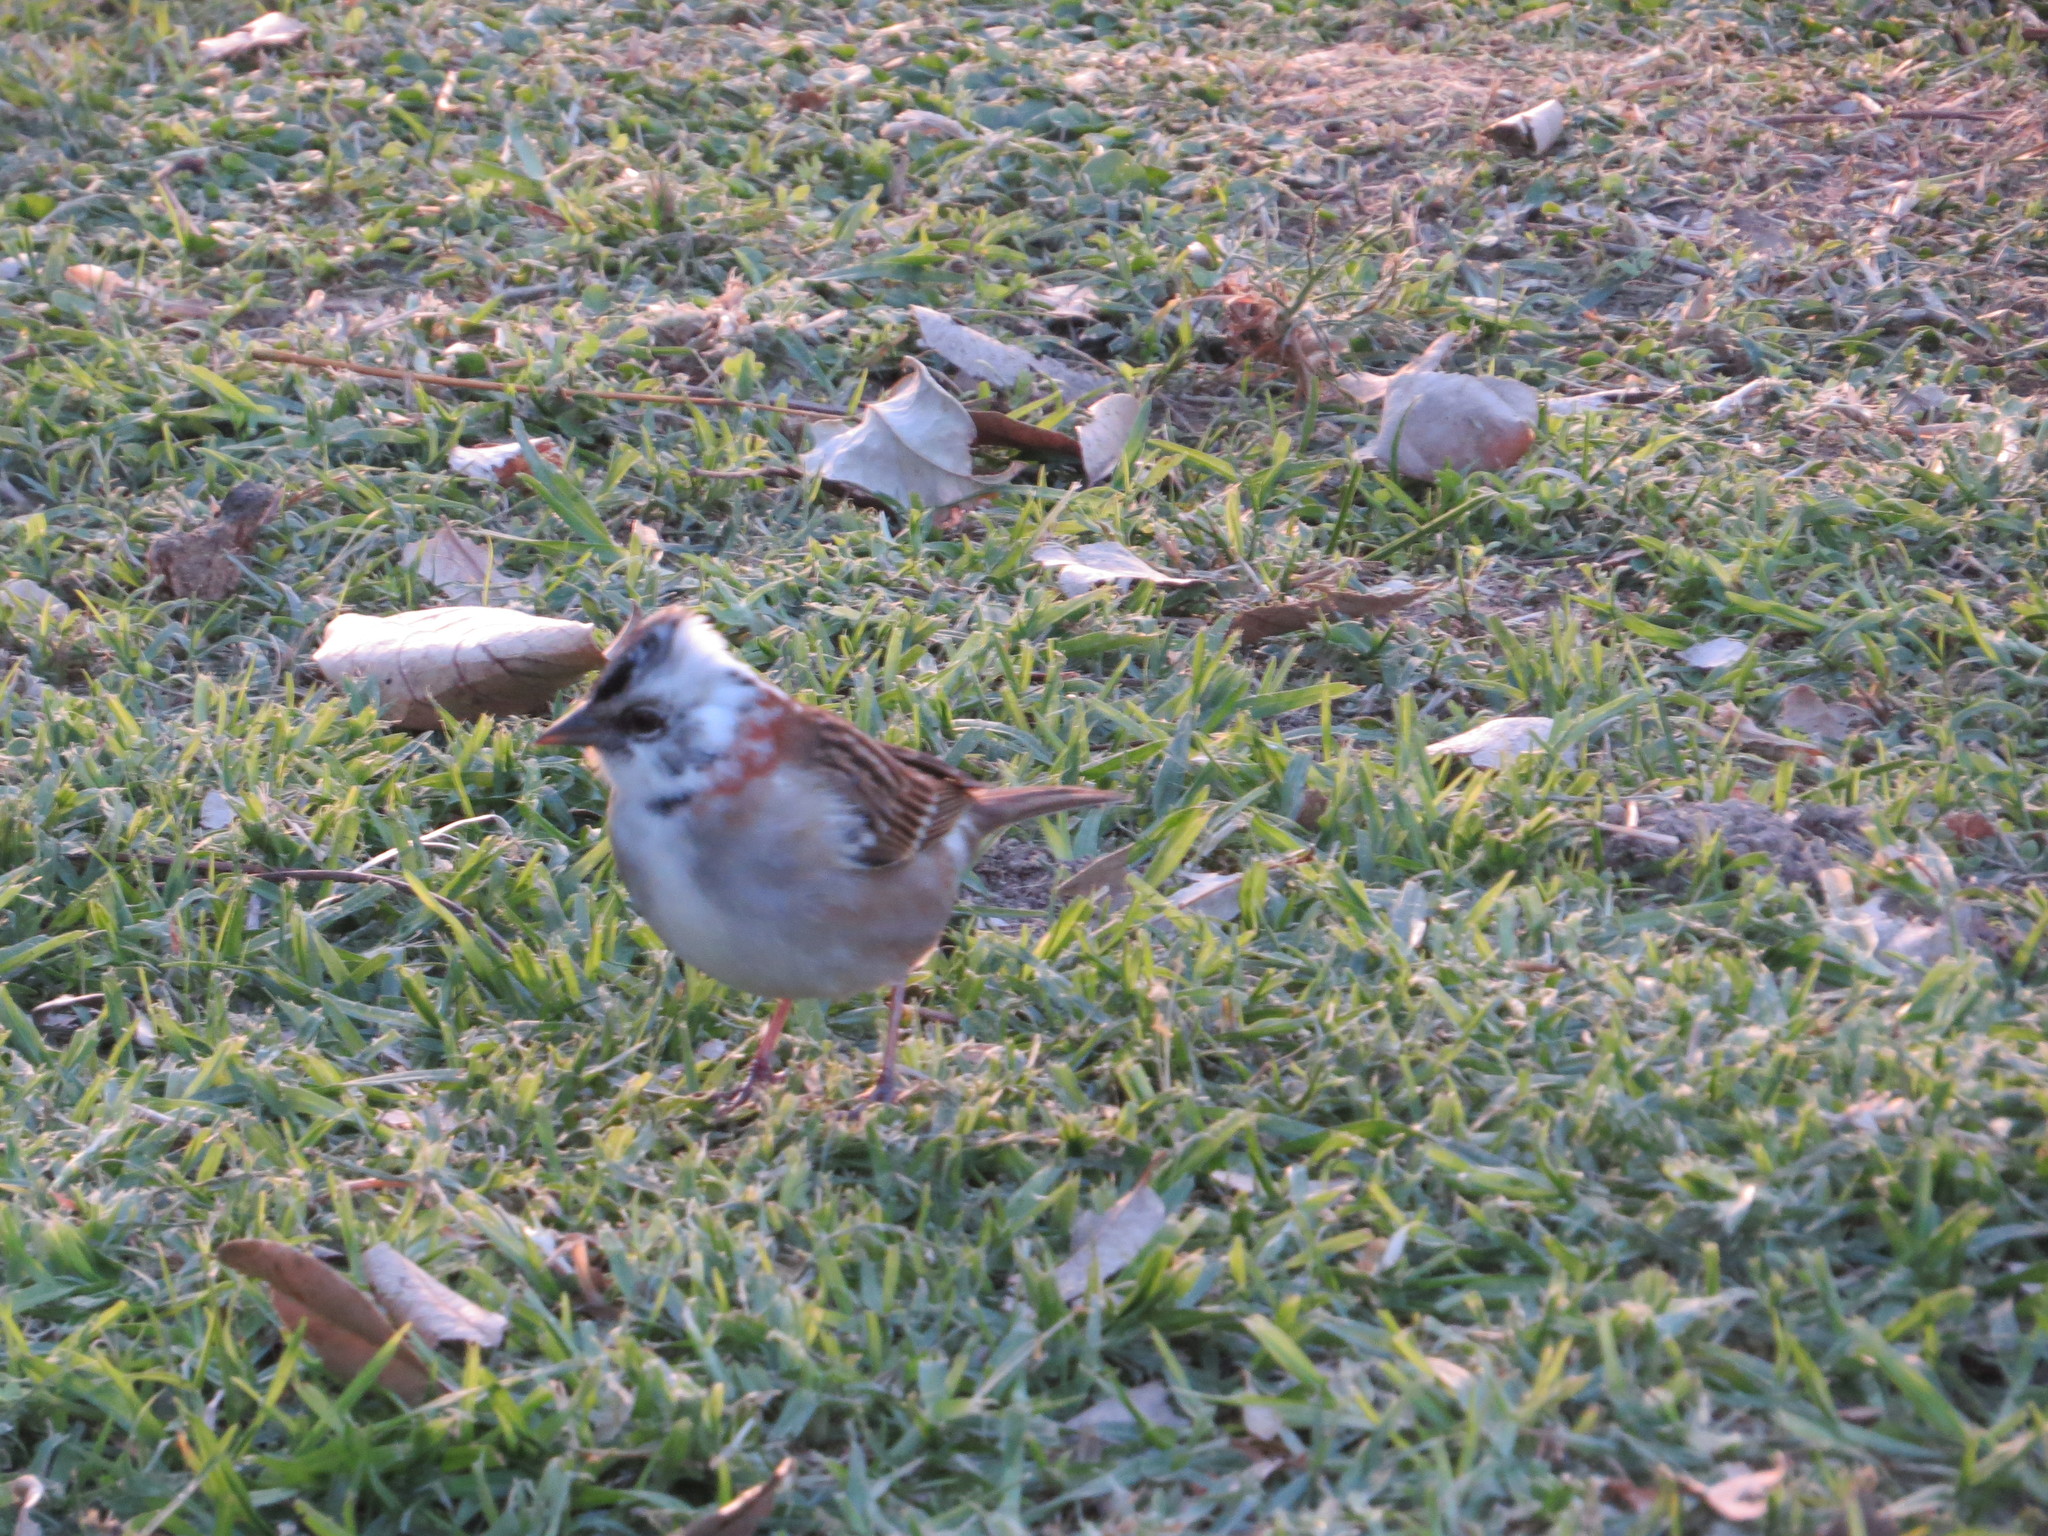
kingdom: Animalia
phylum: Chordata
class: Aves
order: Passeriformes
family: Passerellidae
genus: Zonotrichia
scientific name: Zonotrichia capensis
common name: Rufous-collared sparrow
